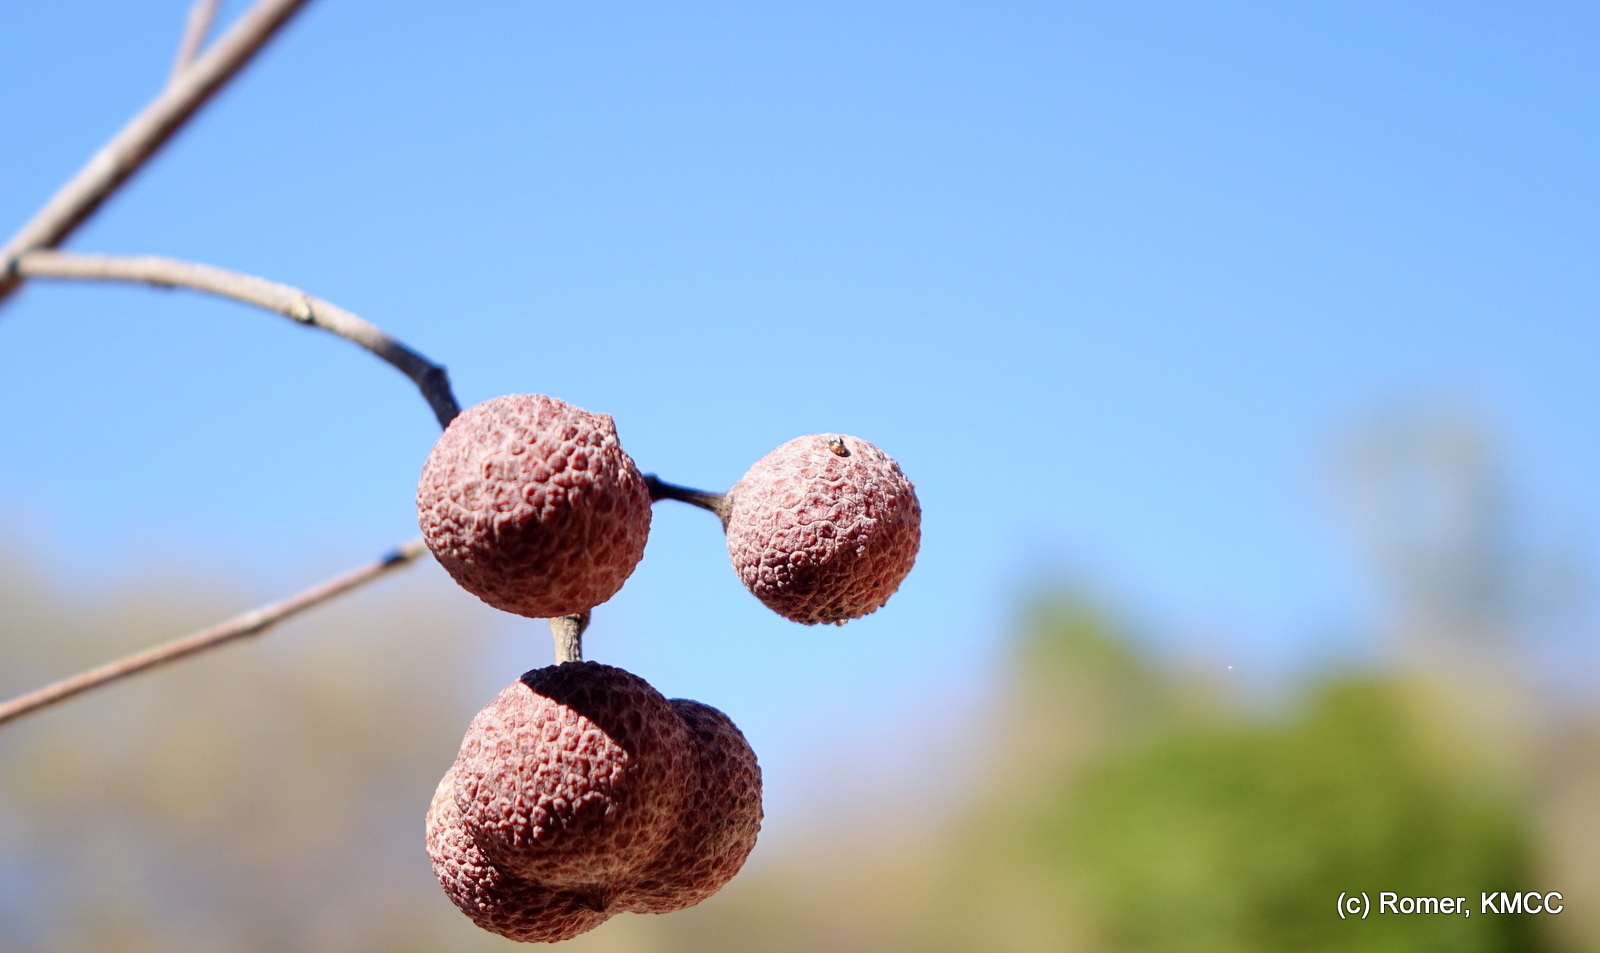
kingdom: Plantae
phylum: Tracheophyta
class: Magnoliopsida
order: Malvales
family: Sphaerosepalaceae
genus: Rhopalocarpus
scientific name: Rhopalocarpus similis
